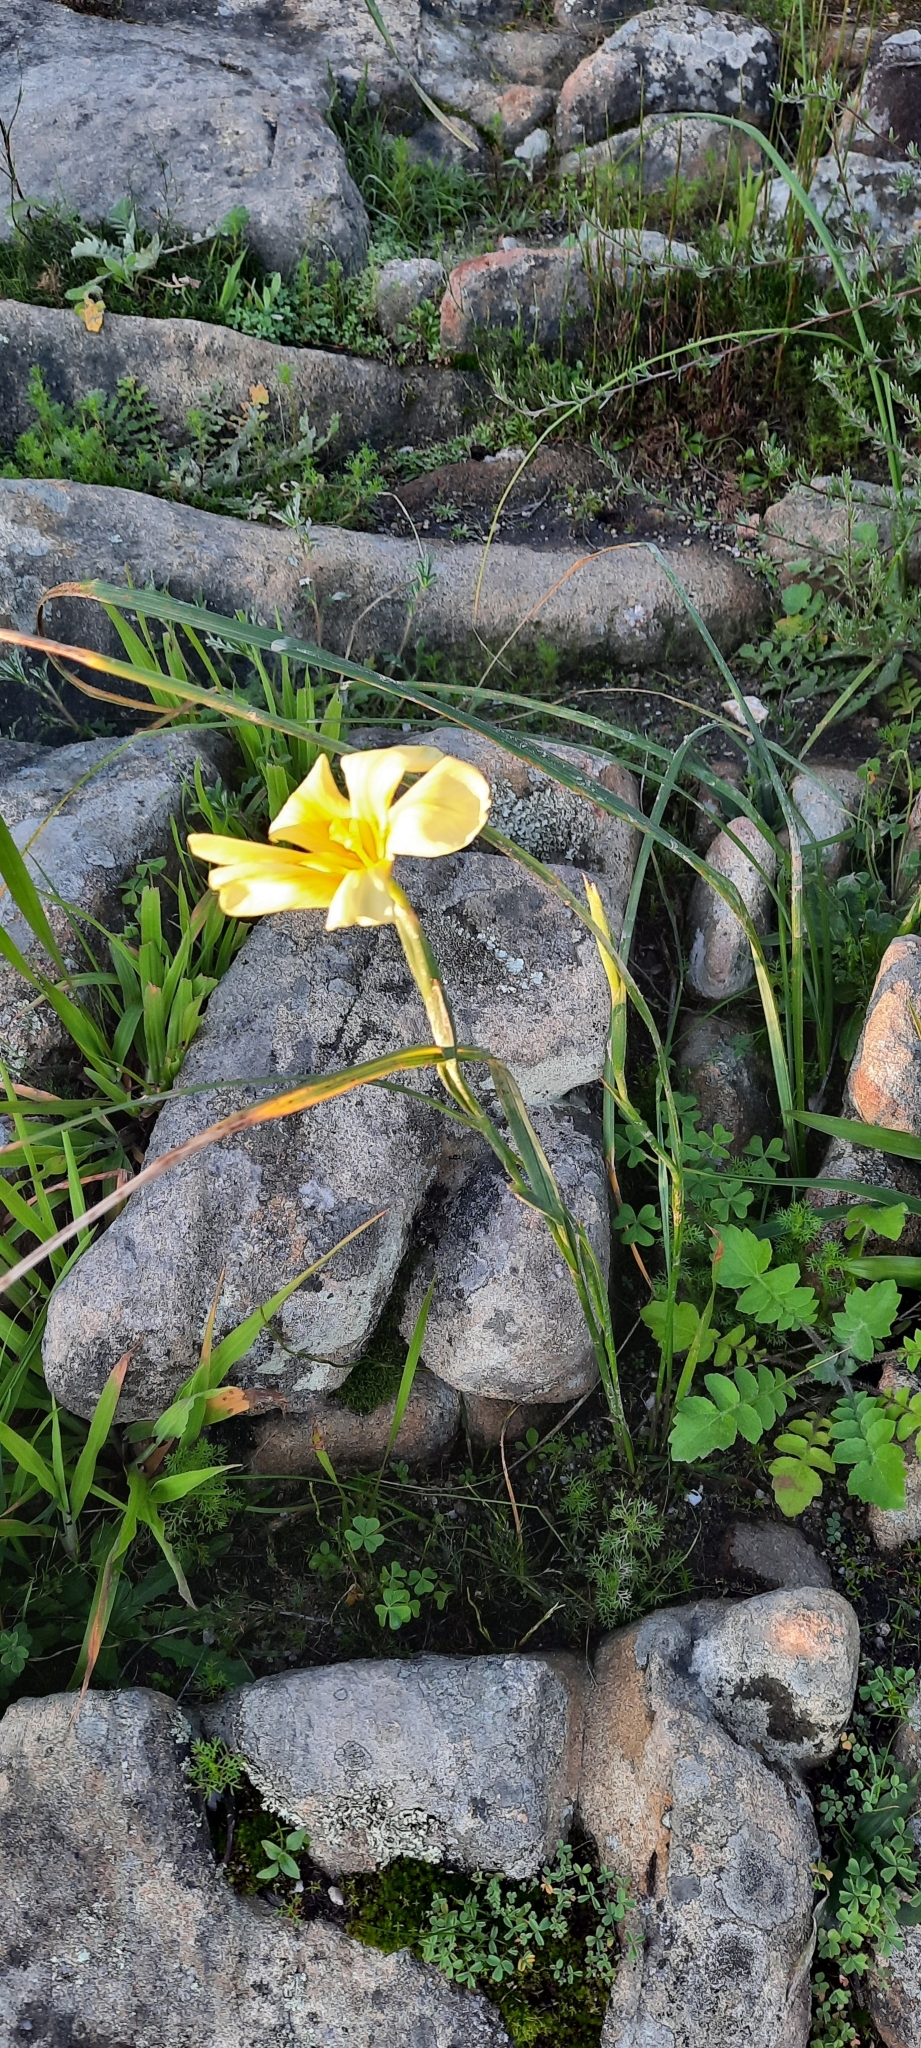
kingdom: Plantae
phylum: Tracheophyta
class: Liliopsida
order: Asparagales
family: Iridaceae
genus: Moraea
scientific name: Moraea ochroleuca
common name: Red tulp
